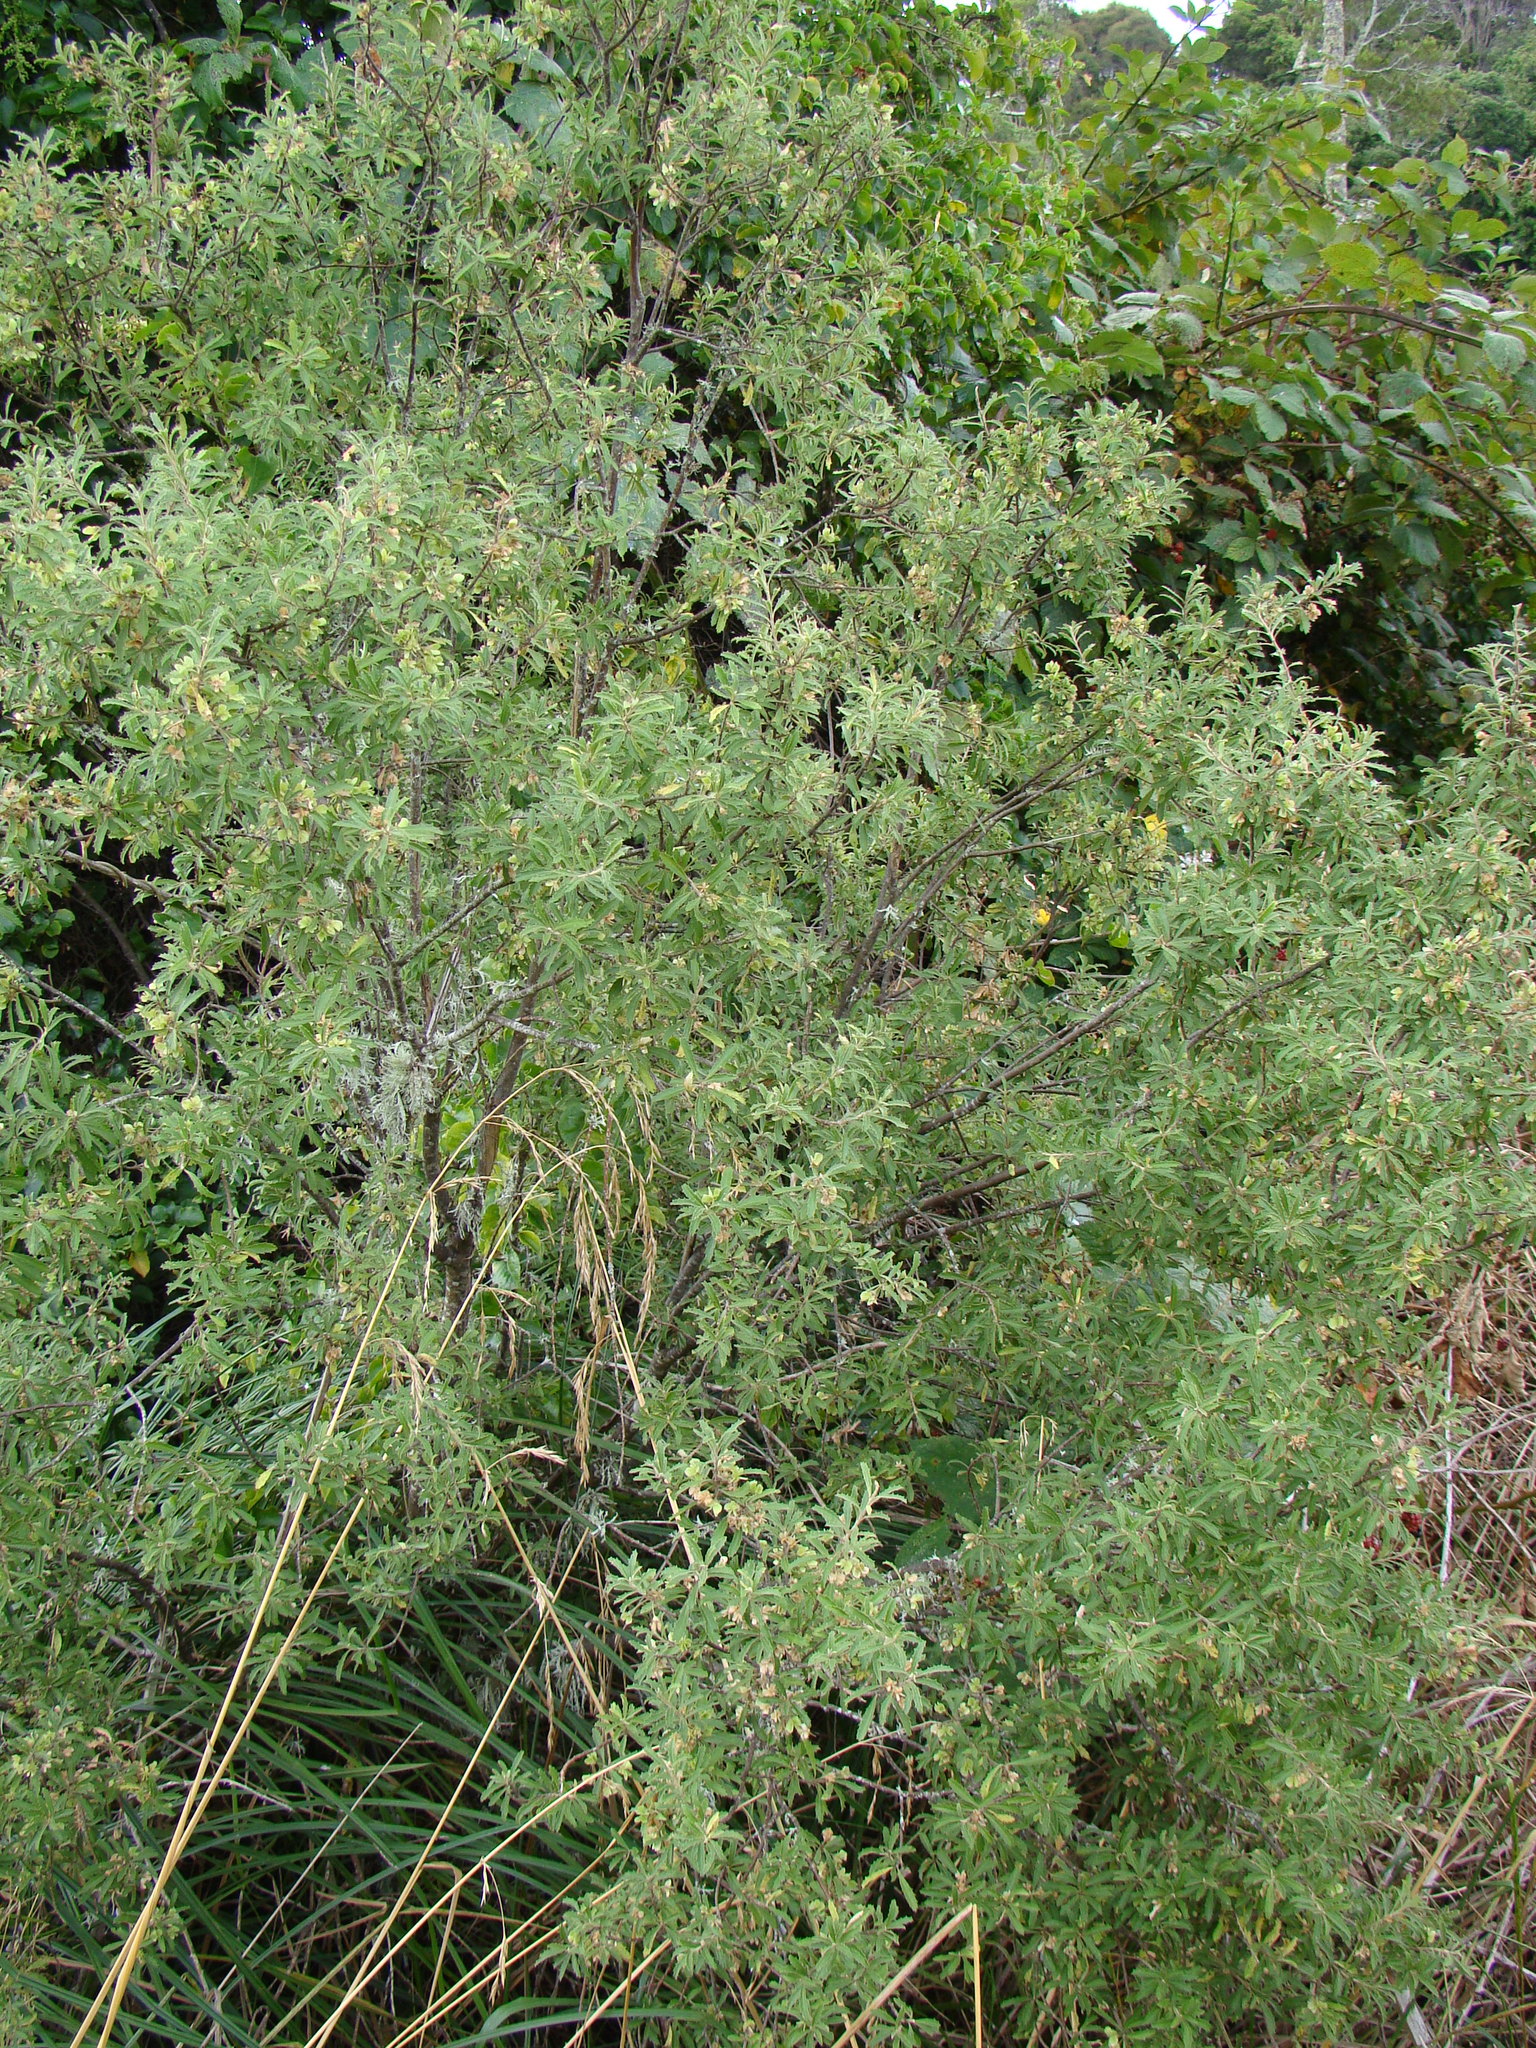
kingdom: Plantae
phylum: Tracheophyta
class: Magnoliopsida
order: Malvales
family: Malvaceae
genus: Hoheria
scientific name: Hoheria angustifolia
